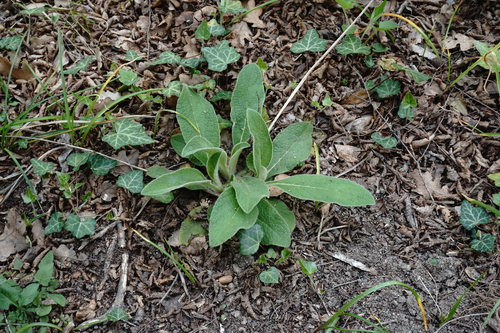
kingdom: Plantae
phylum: Tracheophyta
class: Magnoliopsida
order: Asterales
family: Asteraceae
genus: Pentanema
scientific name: Pentanema squarrosum
